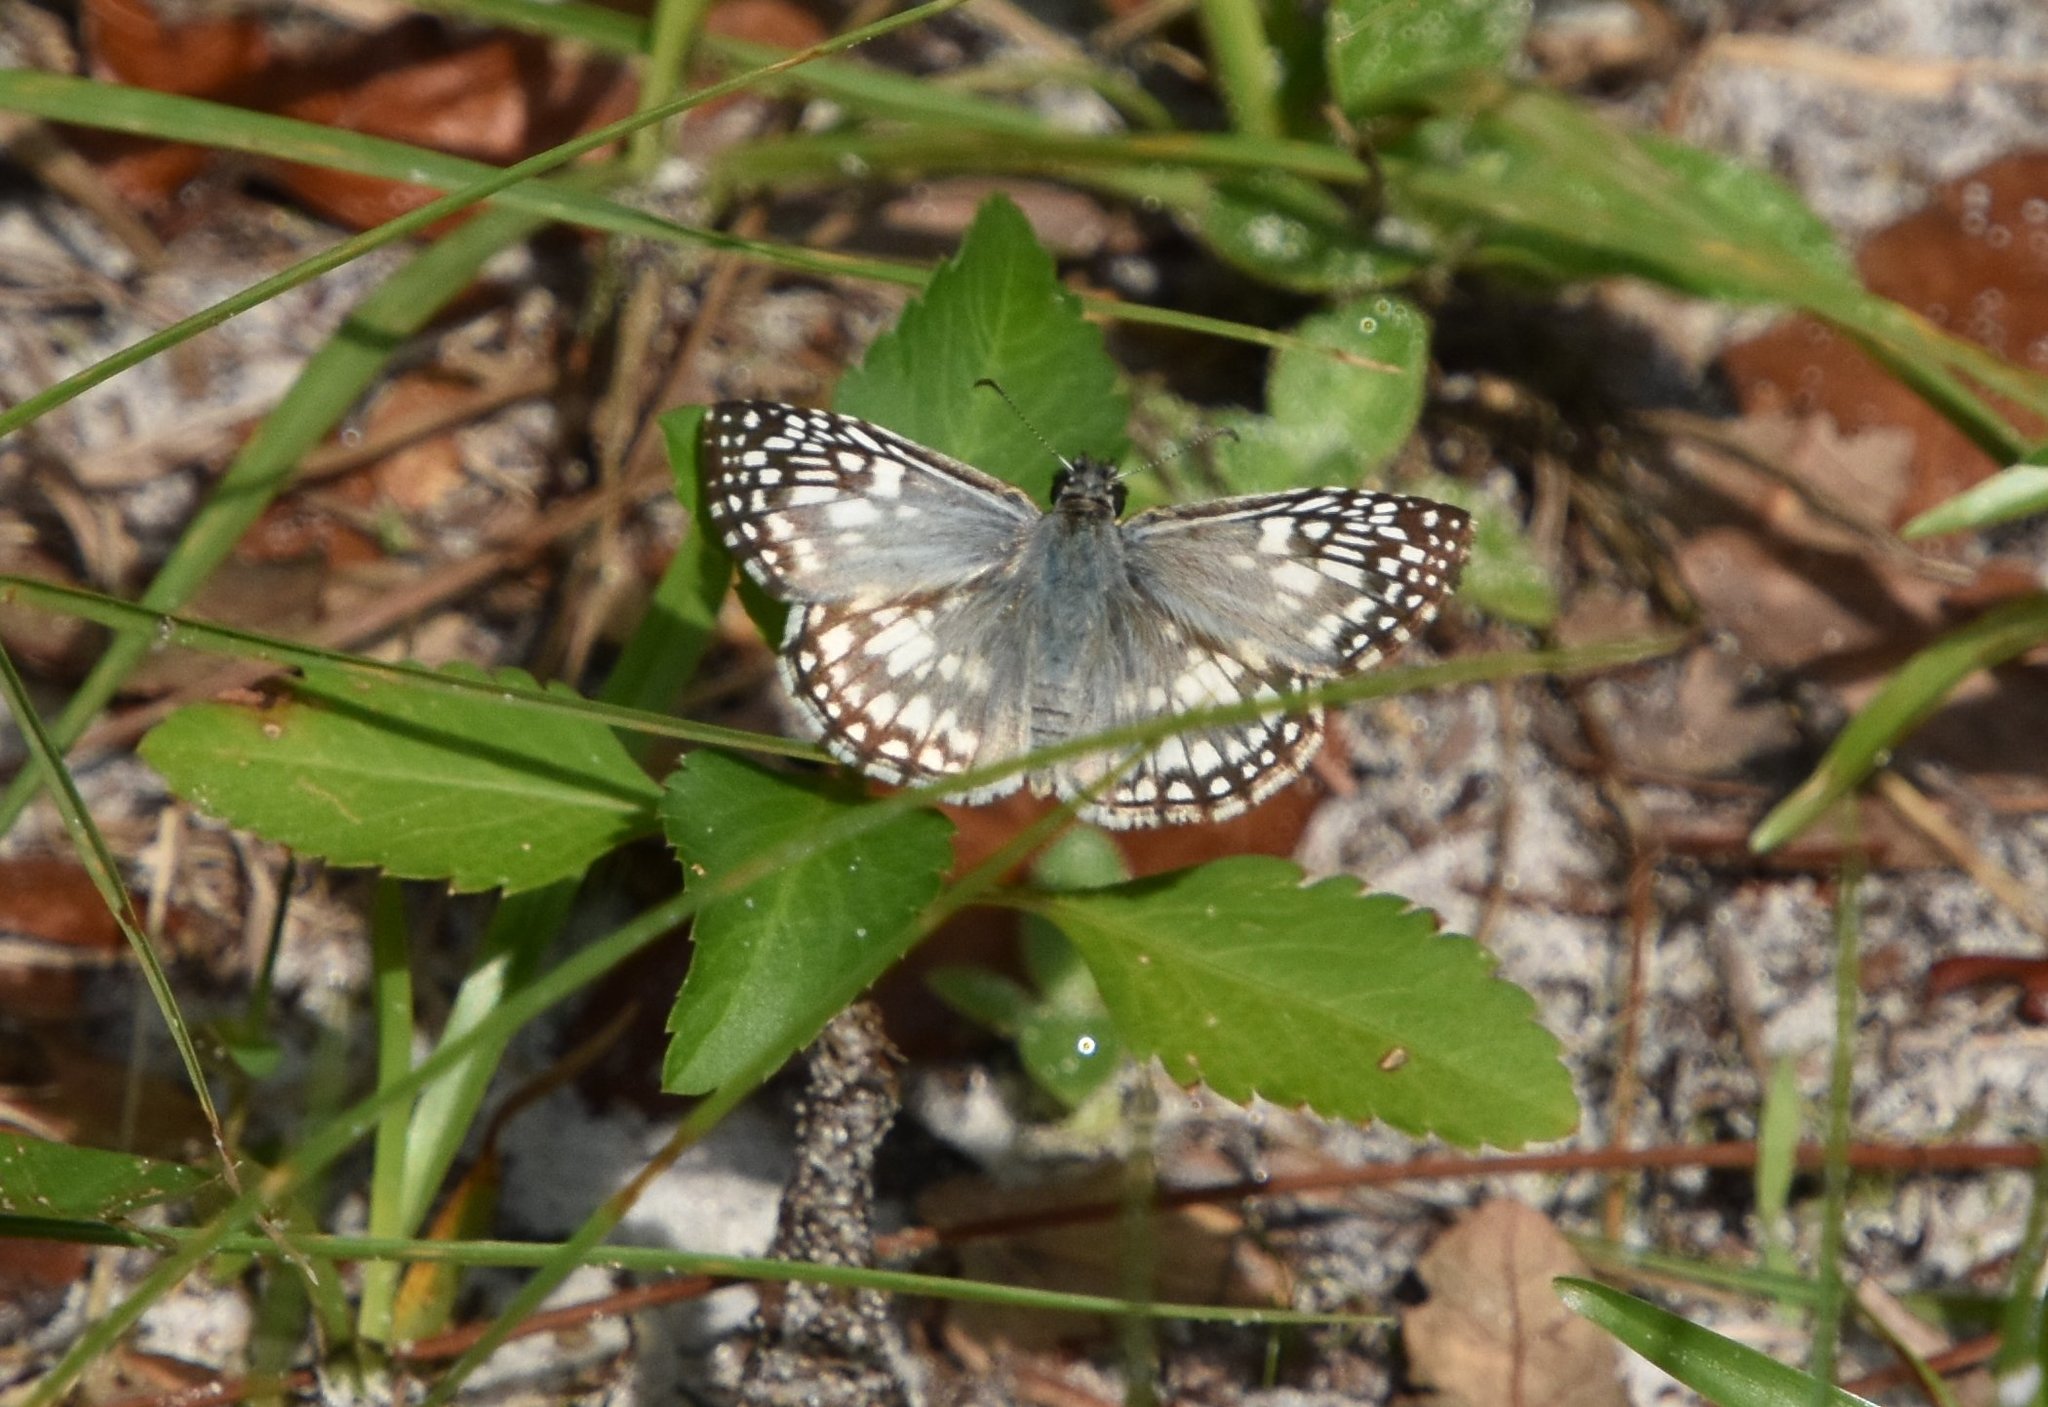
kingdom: Animalia
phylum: Arthropoda
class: Insecta
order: Lepidoptera
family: Hesperiidae
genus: Pyrgus
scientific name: Pyrgus oileus
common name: Tropical checkered-skipper
